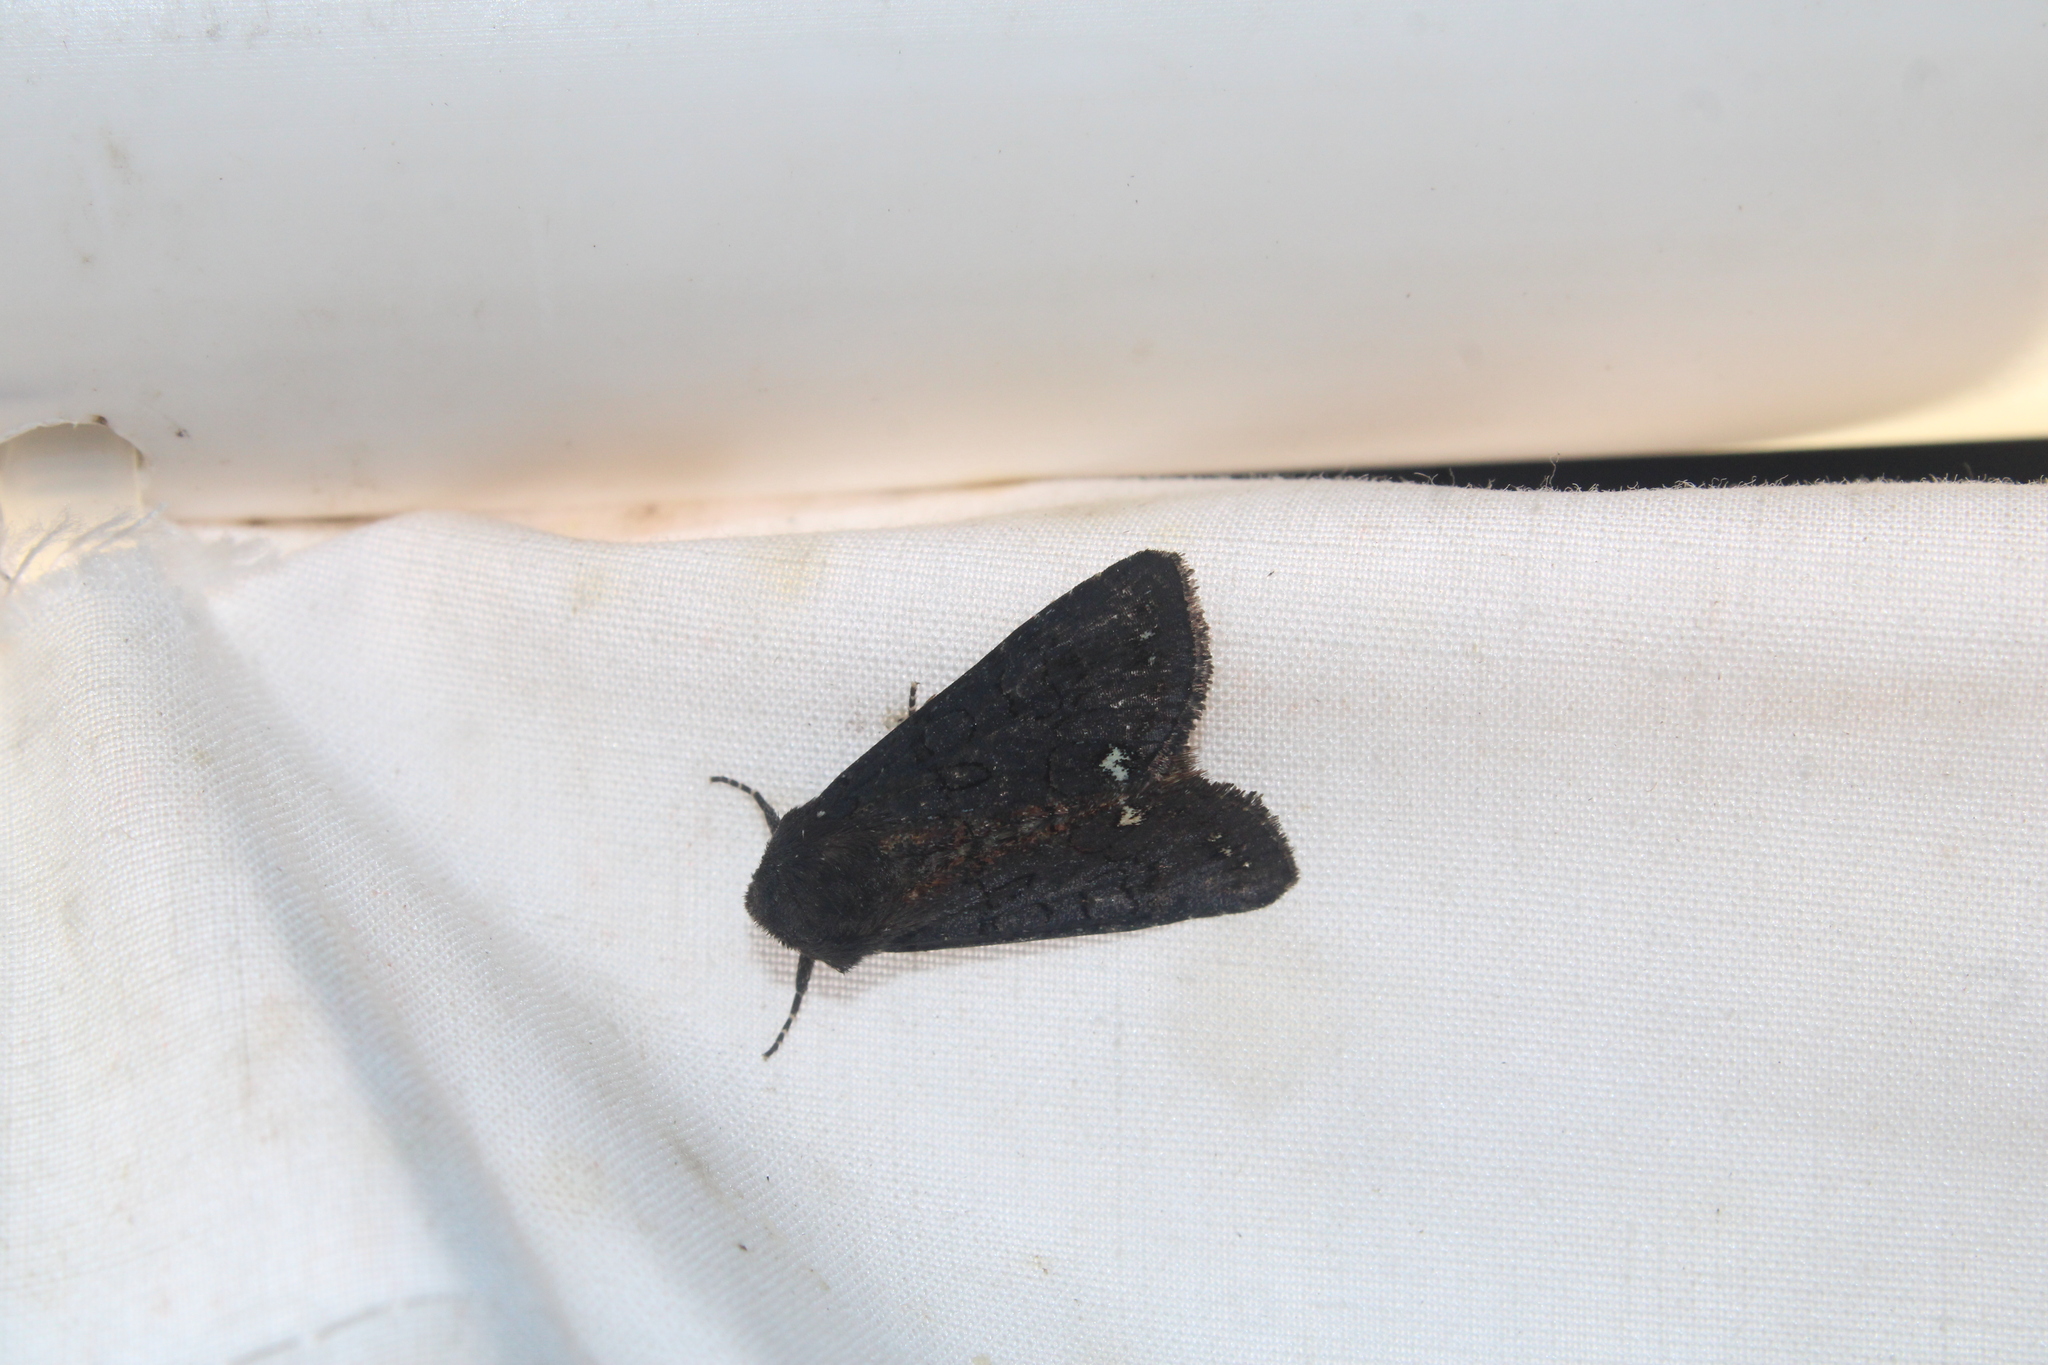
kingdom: Animalia
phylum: Arthropoda
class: Insecta
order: Lepidoptera
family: Noctuidae
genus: Melanchra
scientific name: Melanchra assimilis
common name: Black arches
